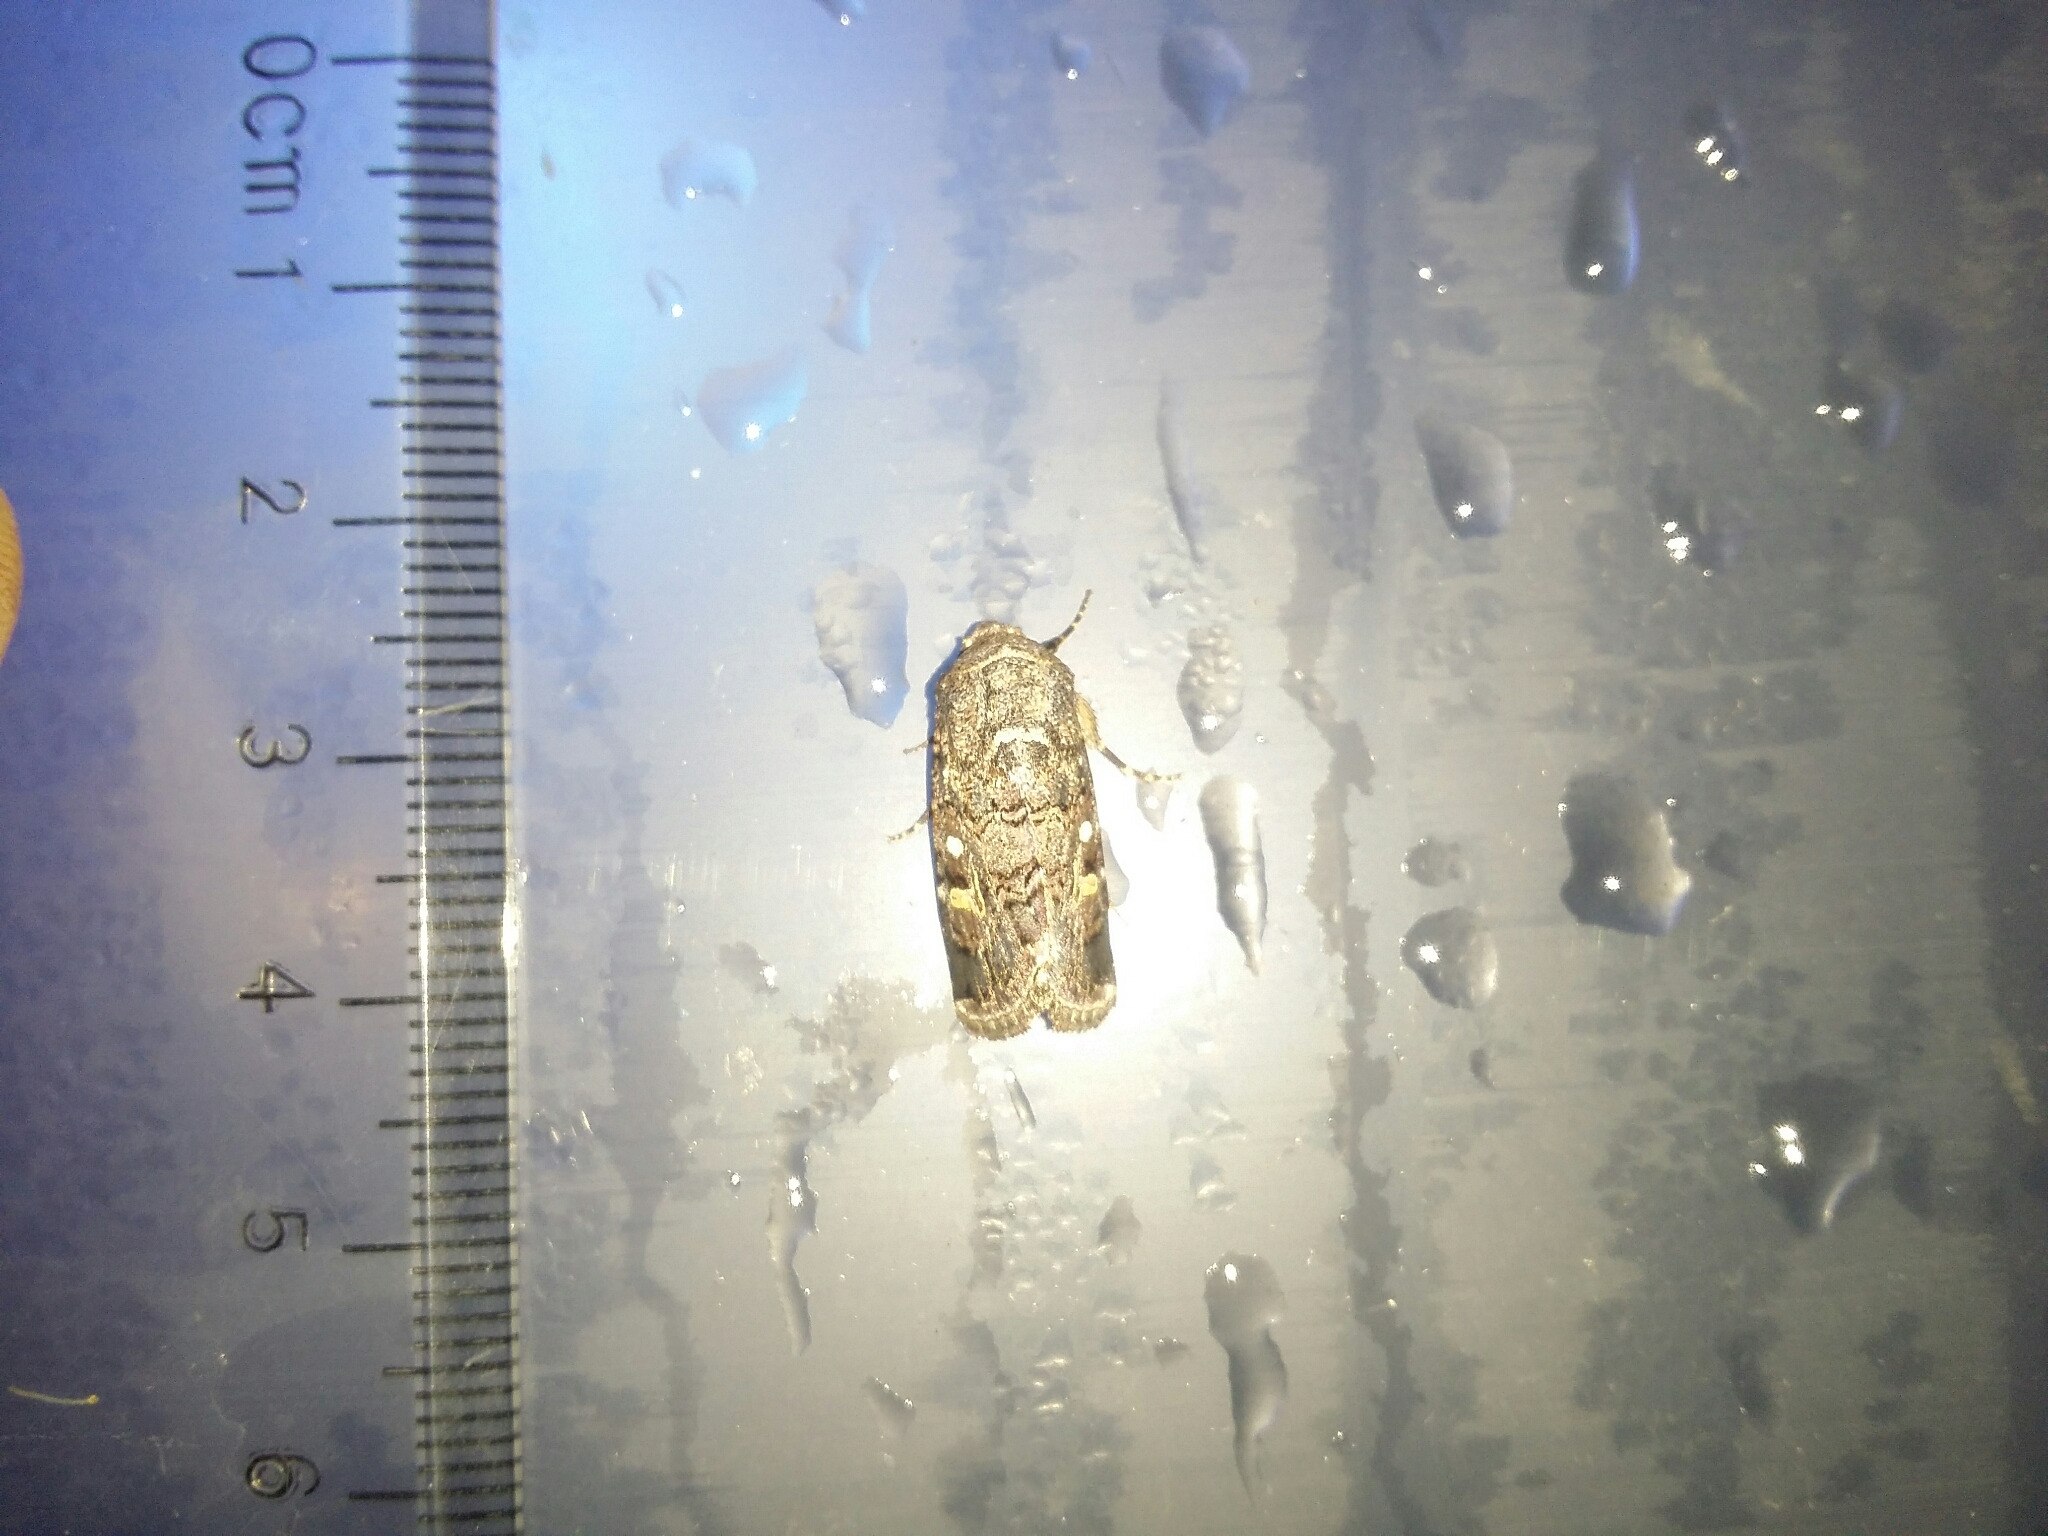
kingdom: Animalia
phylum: Arthropoda
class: Insecta
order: Lepidoptera
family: Noctuidae
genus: Spodoptera
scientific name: Spodoptera mauritia
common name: Lawn armyworm
